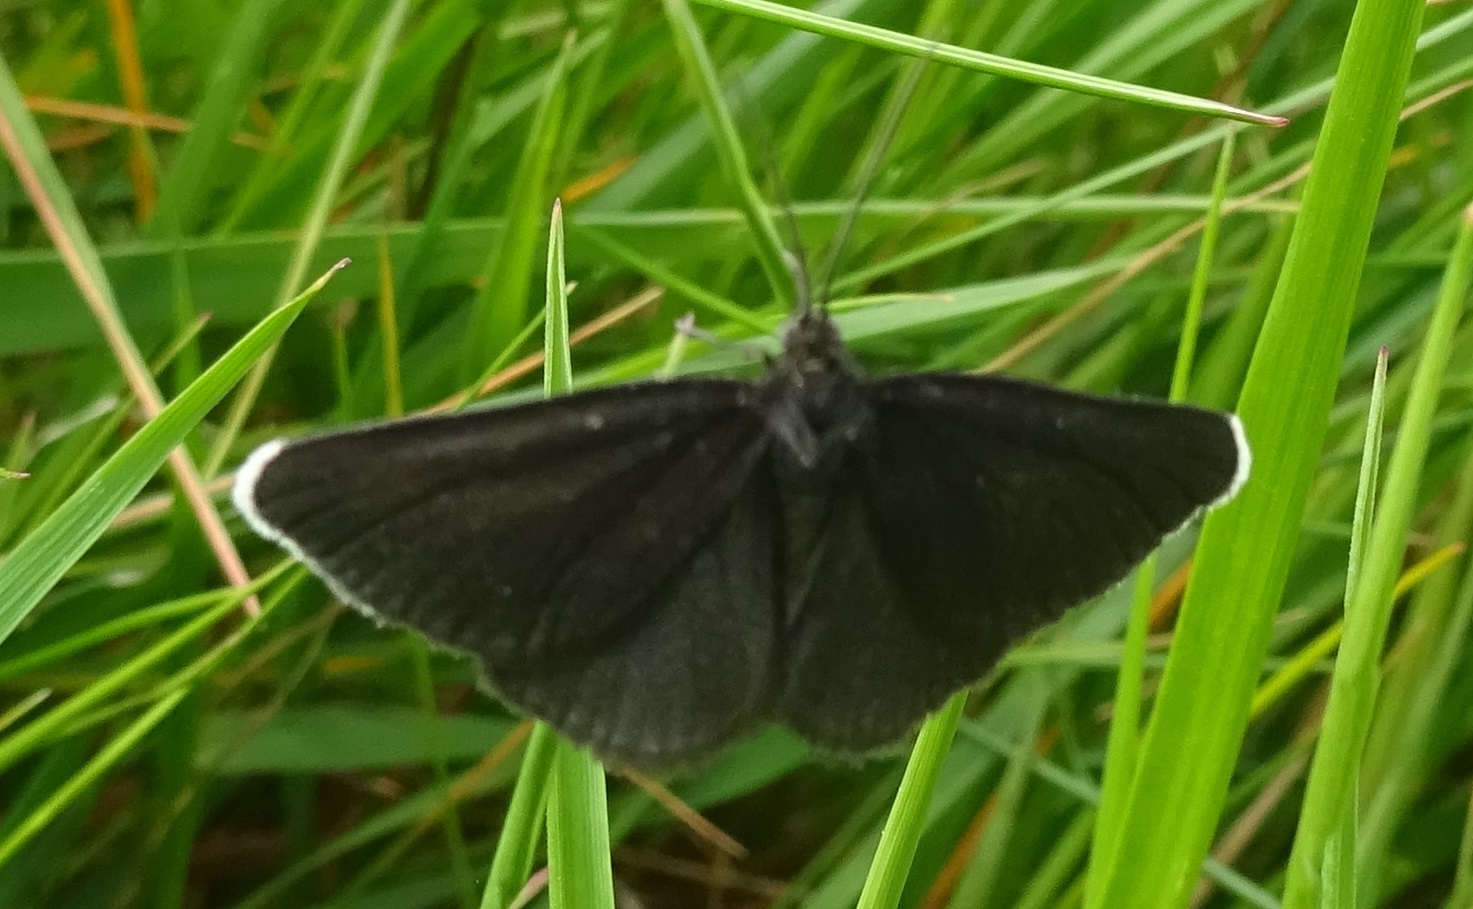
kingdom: Animalia
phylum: Arthropoda
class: Insecta
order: Lepidoptera
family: Geometridae
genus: Odezia
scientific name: Odezia atrata
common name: Chimney sweeper
